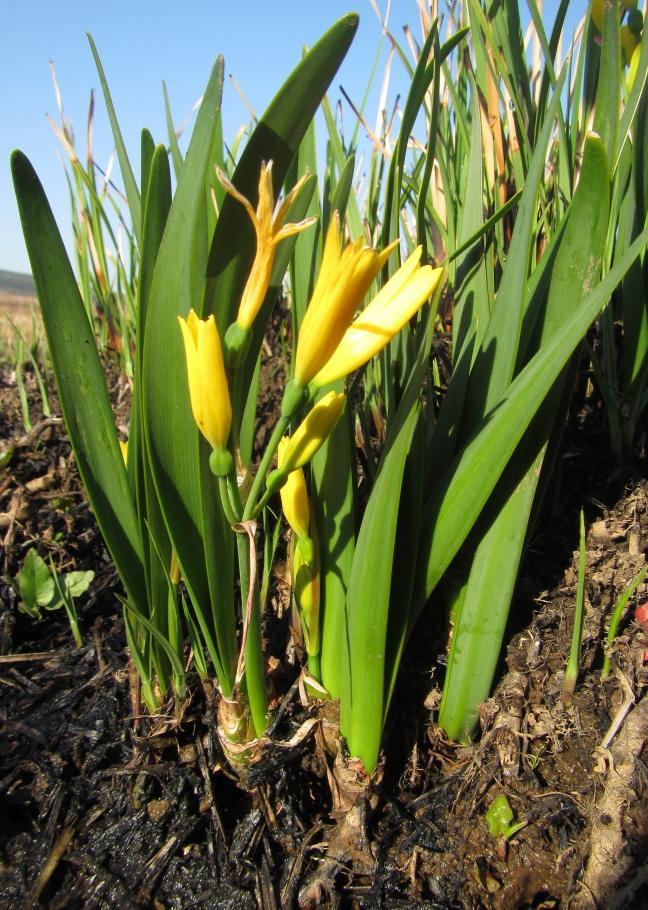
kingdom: Plantae
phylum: Tracheophyta
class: Liliopsida
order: Asparagales
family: Amaryllidaceae
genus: Cyrtanthus
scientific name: Cyrtanthus breviflorus
